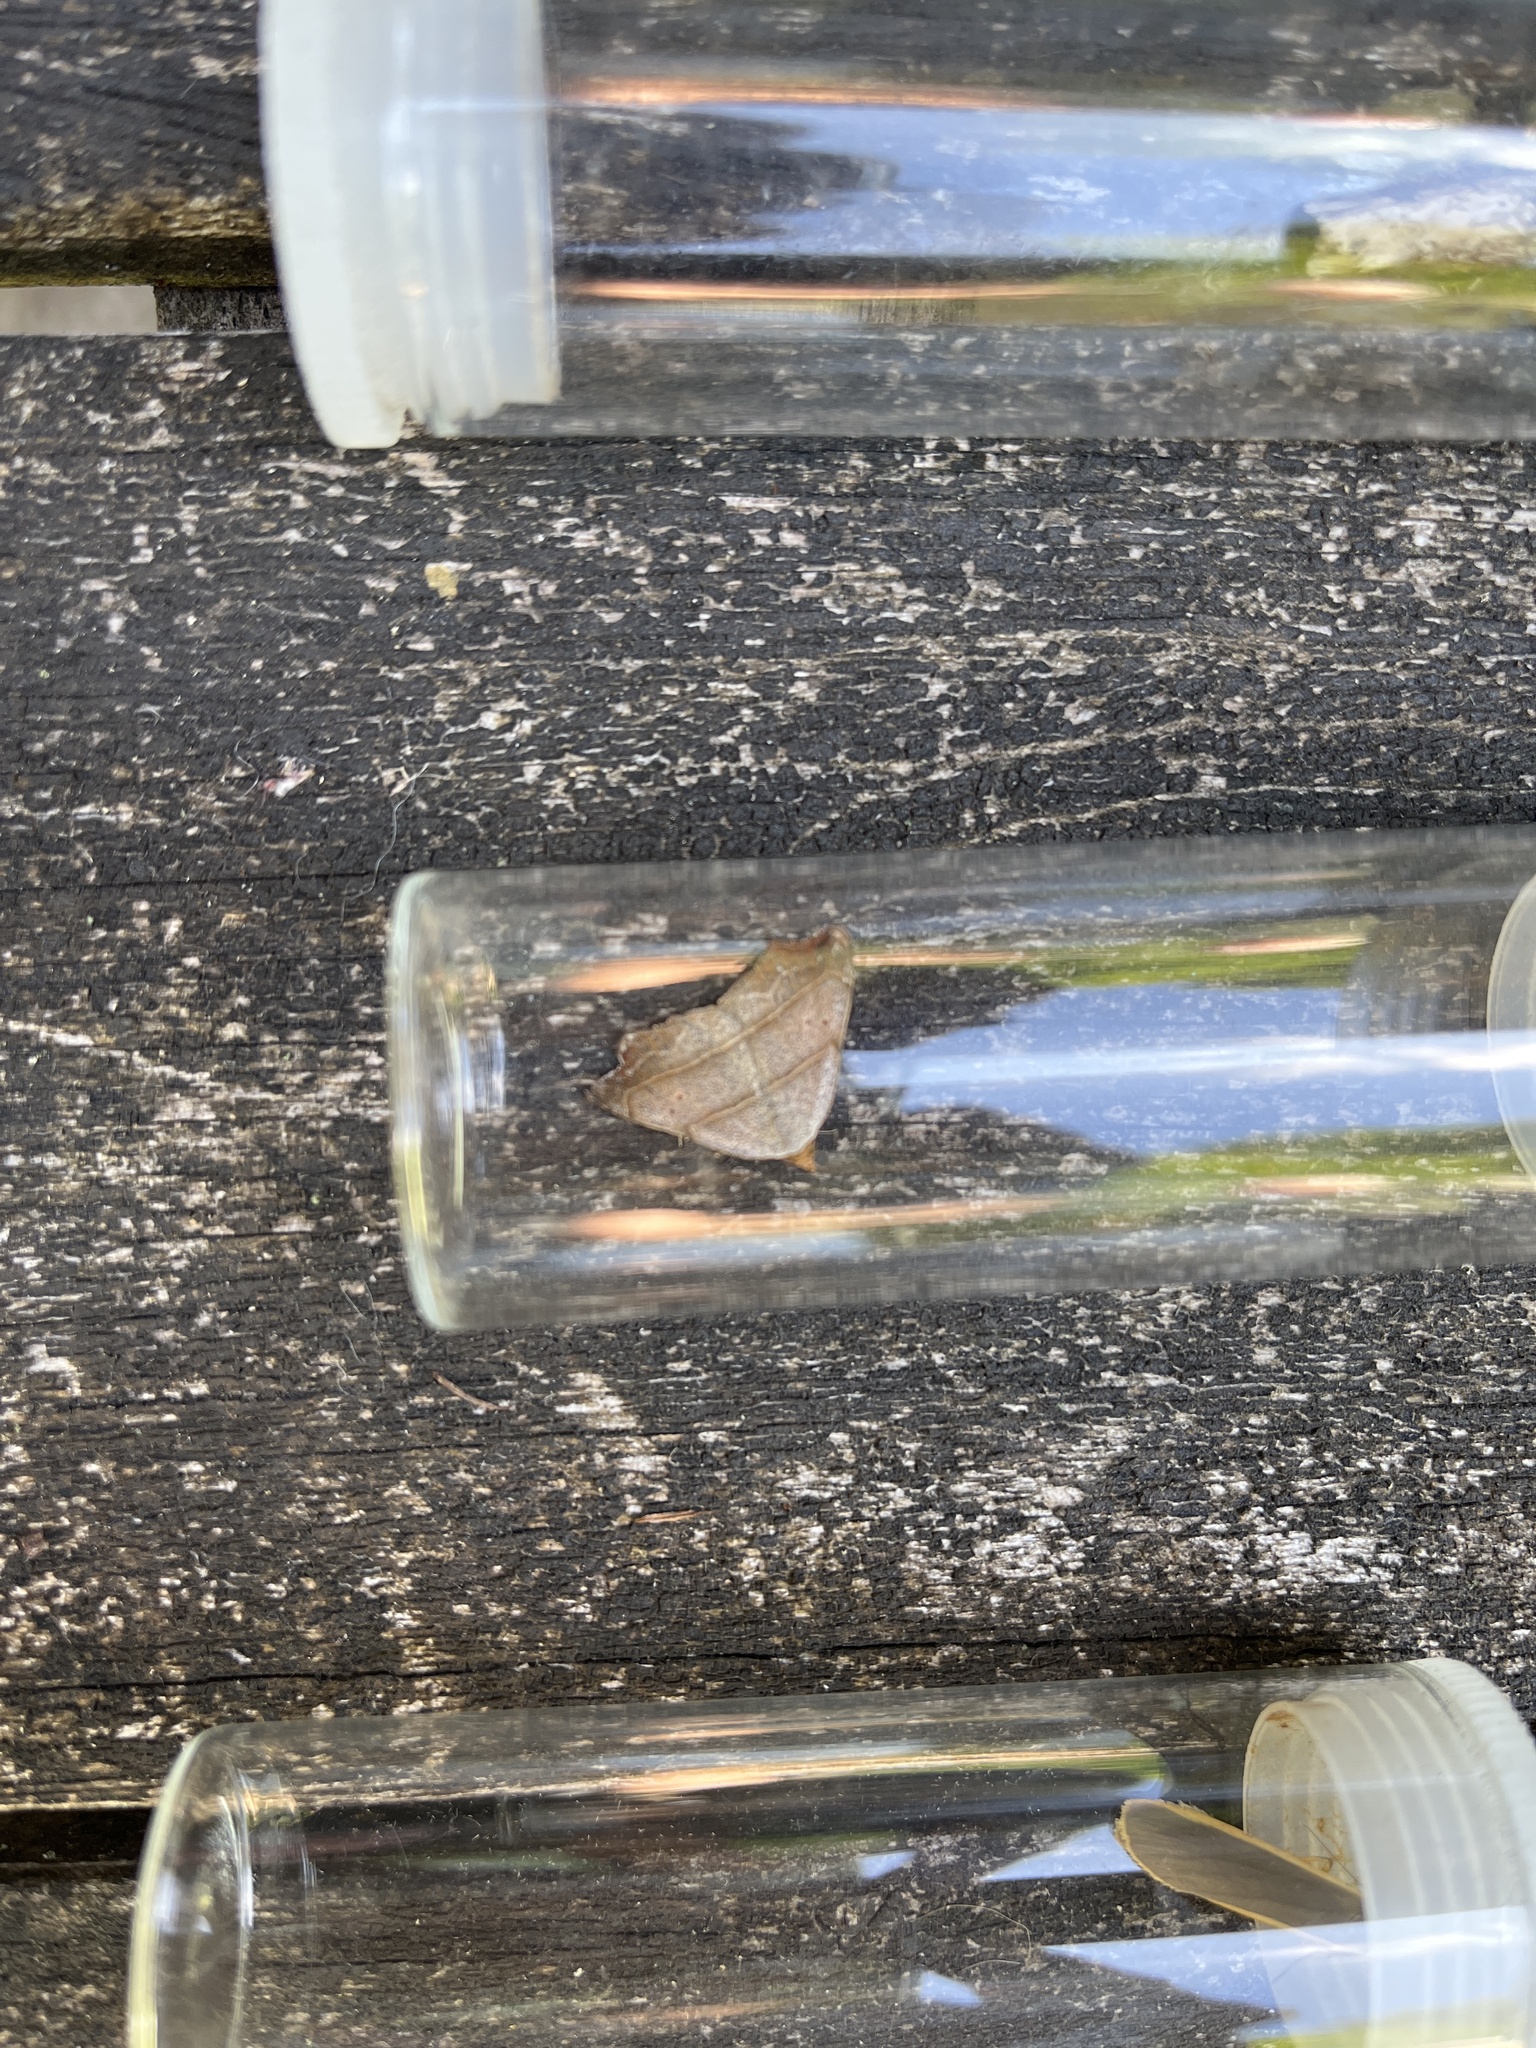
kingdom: Animalia
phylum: Arthropoda
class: Insecta
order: Lepidoptera
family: Erebidae
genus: Laspeyria
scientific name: Laspeyria flexula
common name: Beautiful hook-tip
